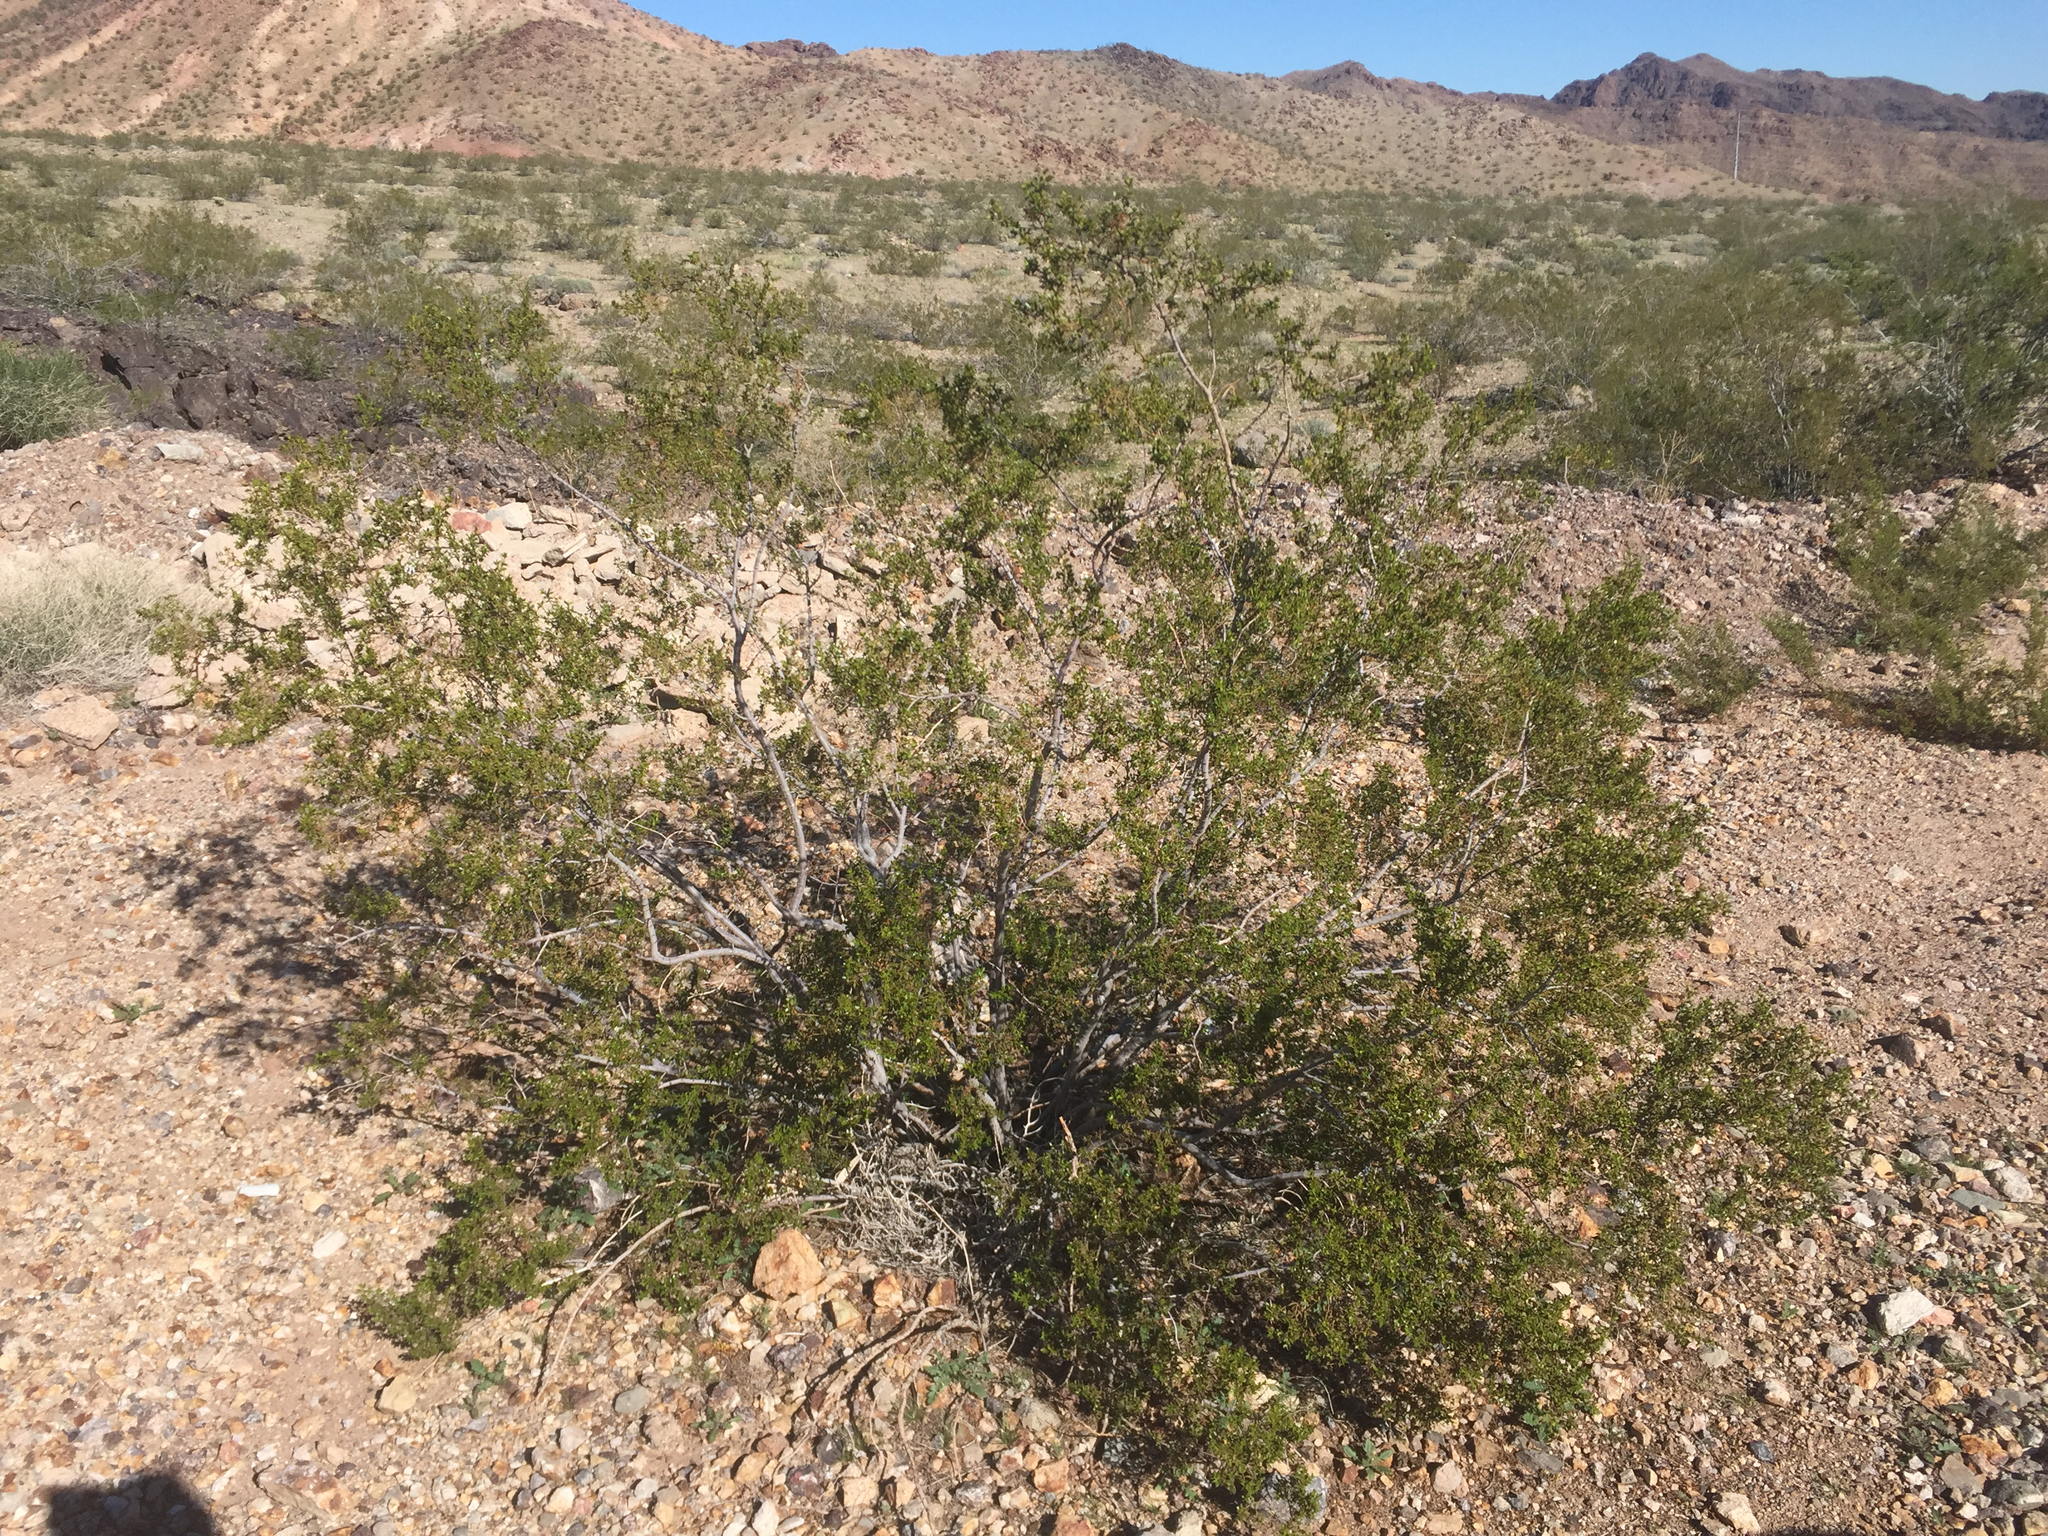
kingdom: Plantae
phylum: Tracheophyta
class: Magnoliopsida
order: Zygophyllales
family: Zygophyllaceae
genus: Larrea
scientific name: Larrea tridentata
